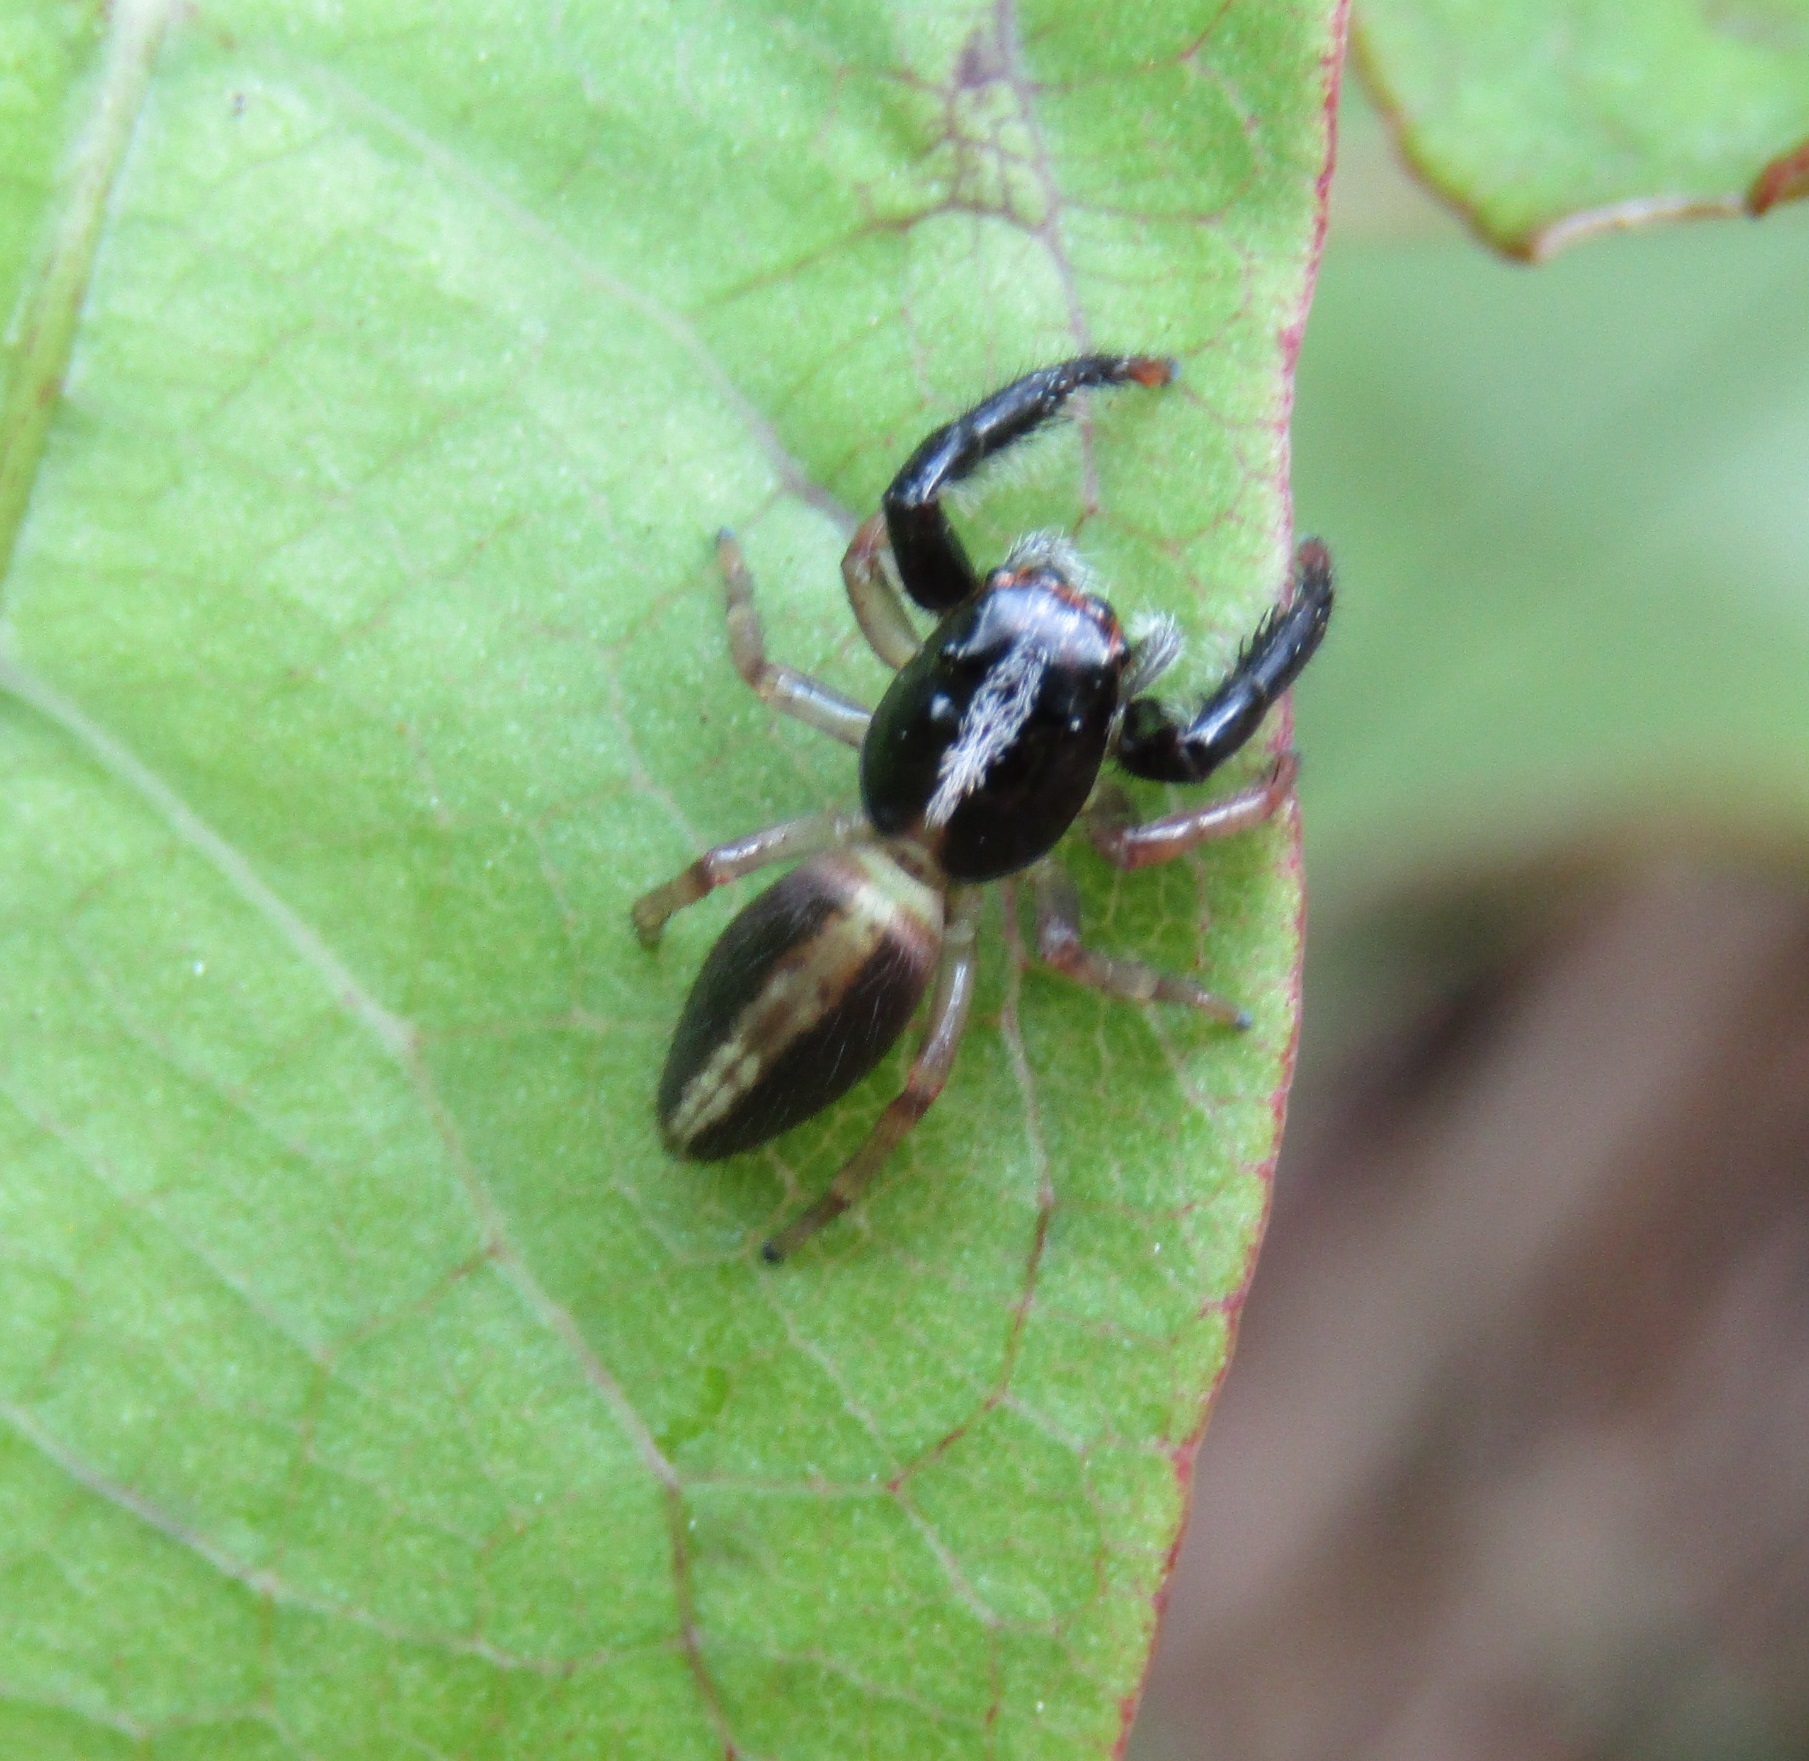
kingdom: Animalia
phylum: Arthropoda
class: Arachnida
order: Araneae
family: Salticidae
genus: Trite
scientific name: Trite planiceps
